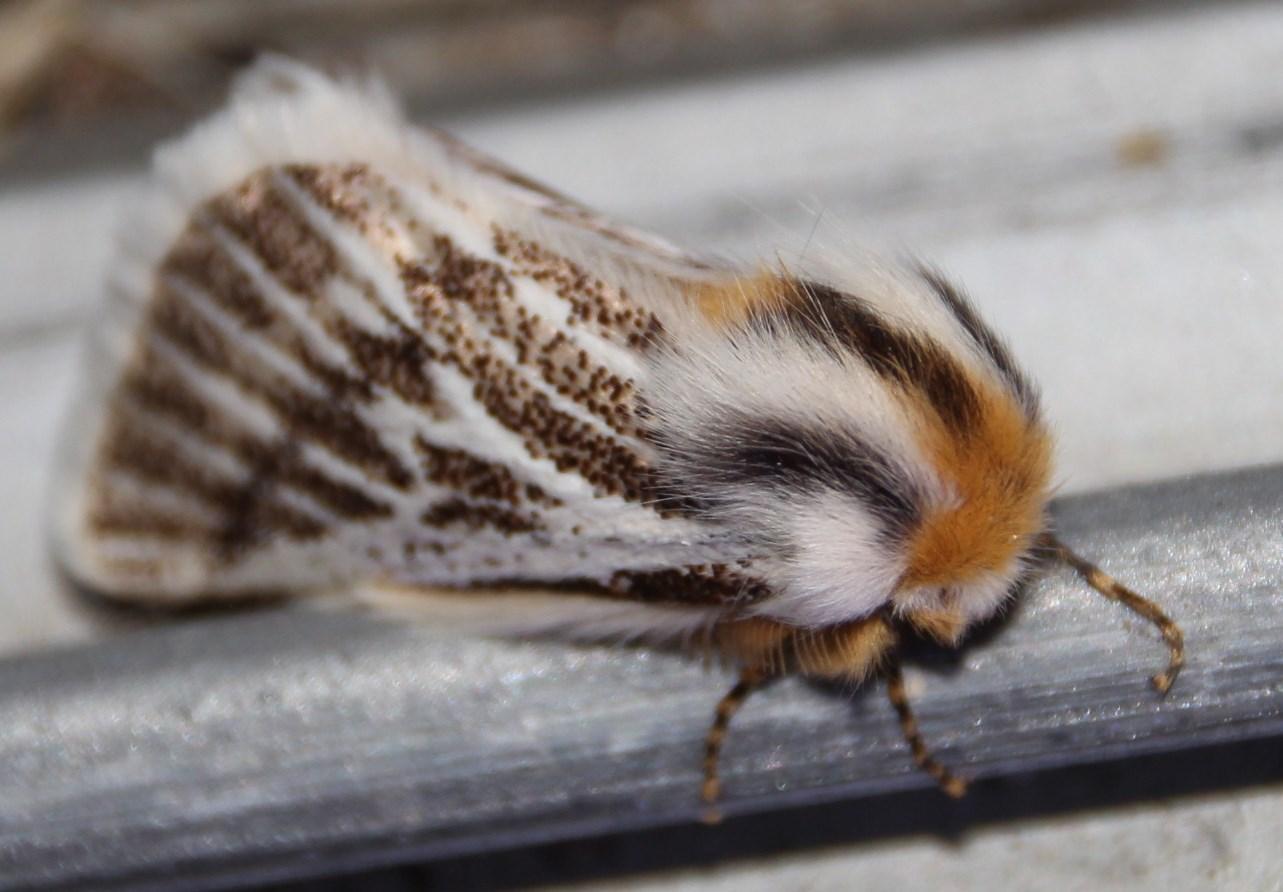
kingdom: Animalia
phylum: Arthropoda
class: Insecta
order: Lepidoptera
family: Eupterotidae
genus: Rhabdosia
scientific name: Rhabdosia vaninia
